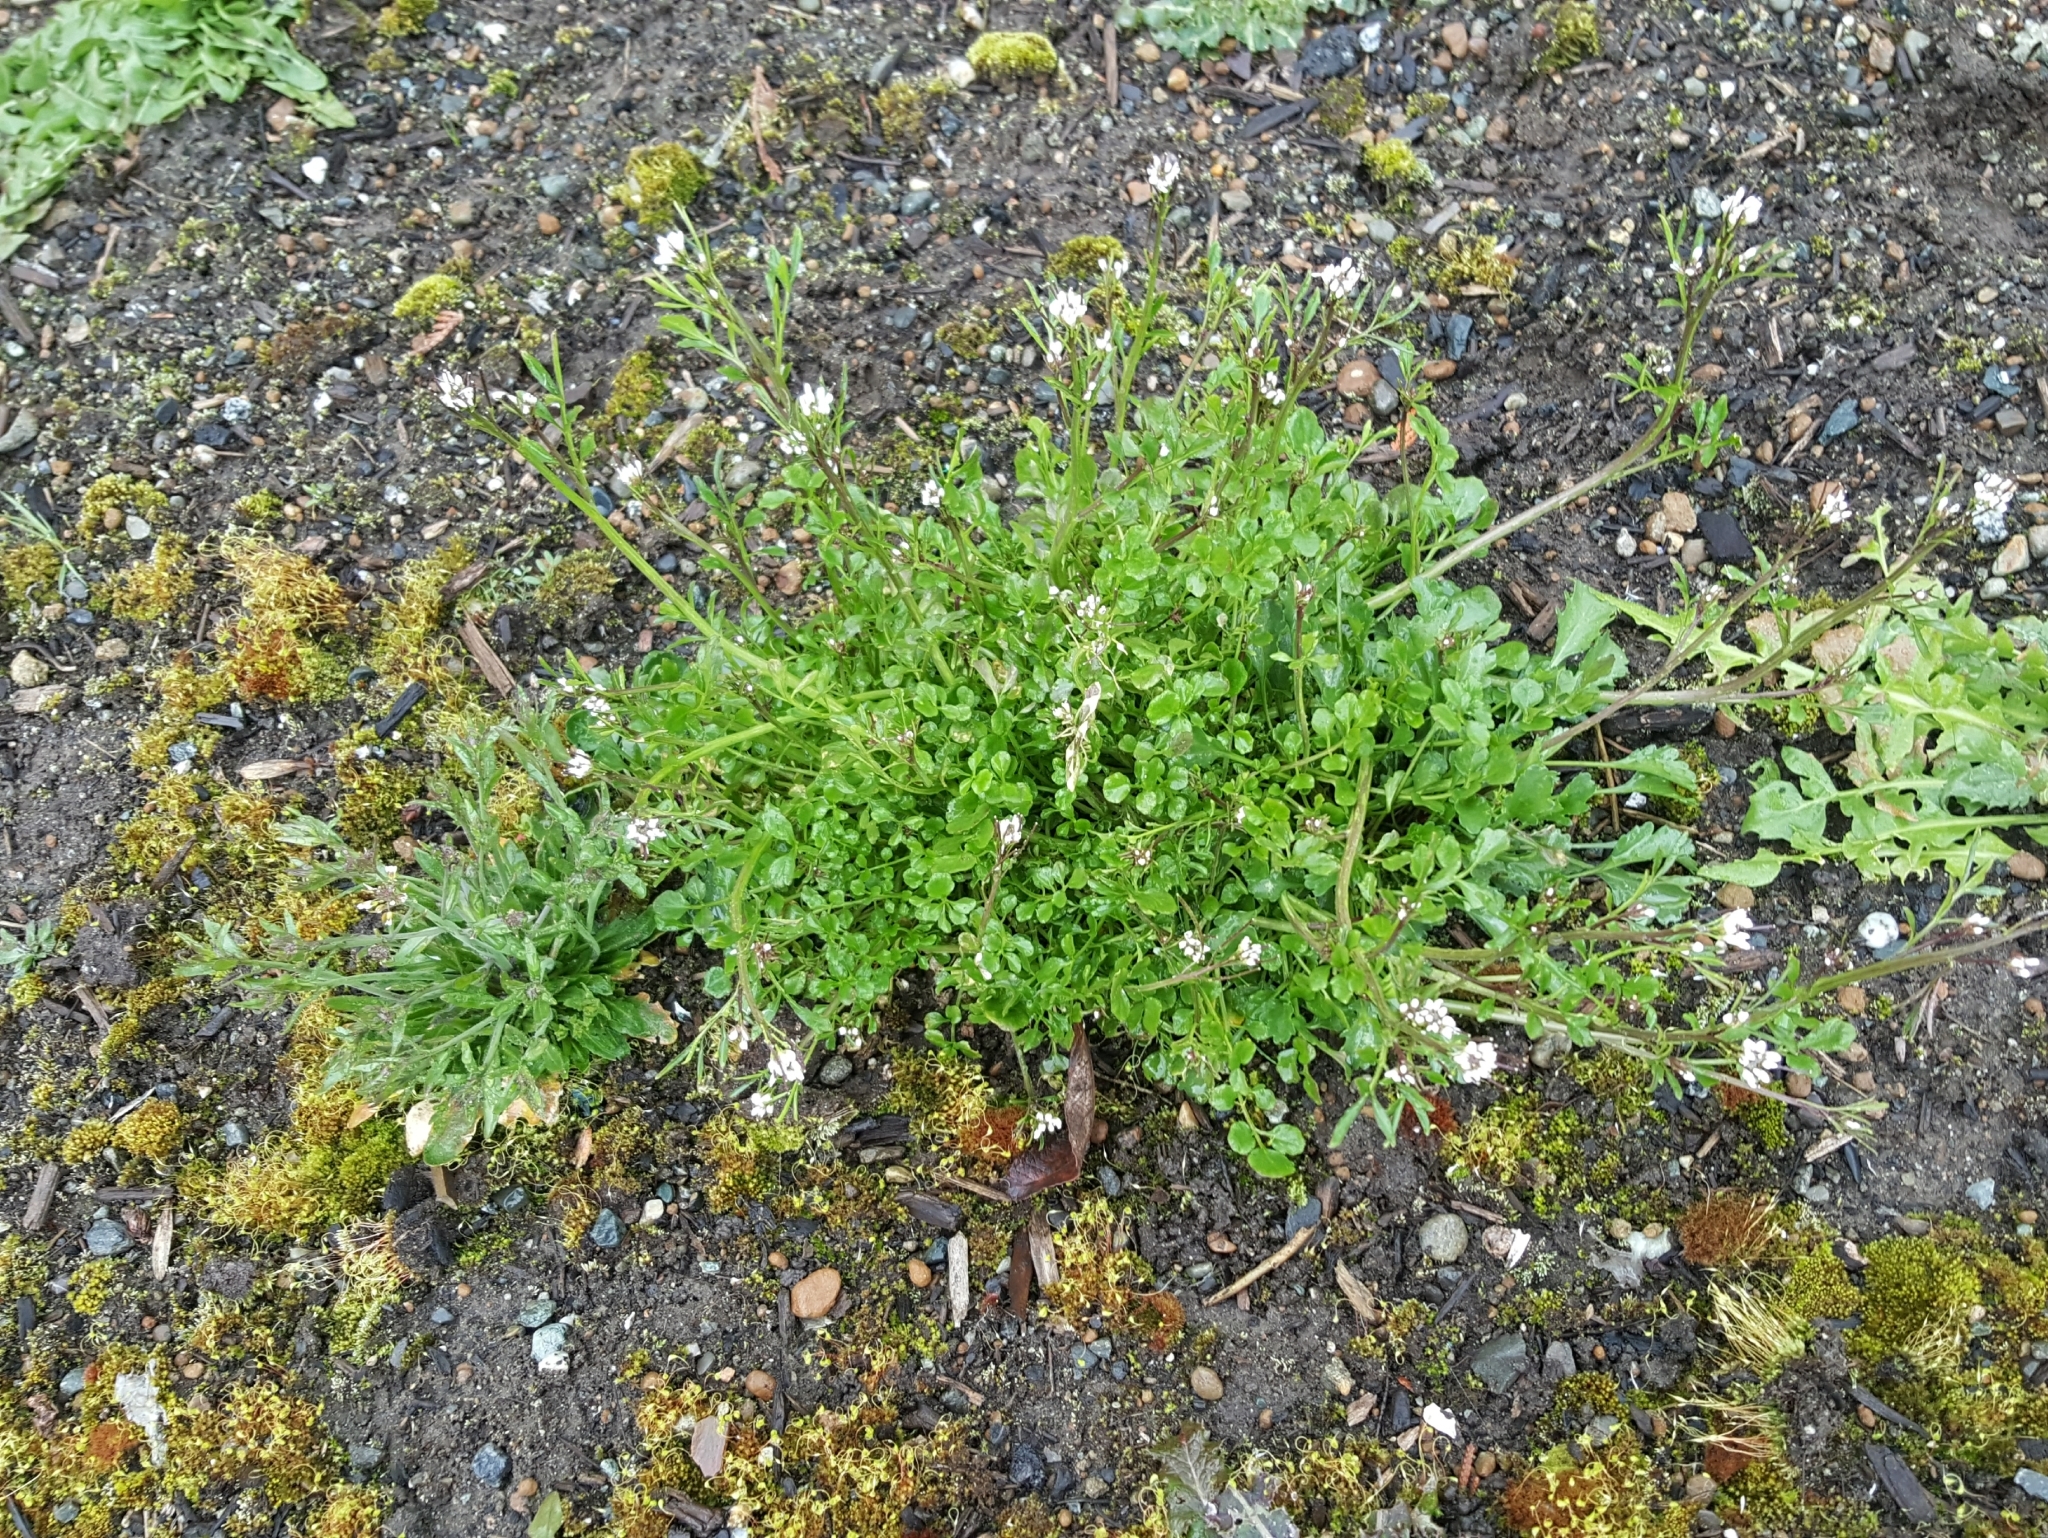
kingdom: Plantae
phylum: Tracheophyta
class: Magnoliopsida
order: Brassicales
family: Brassicaceae
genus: Cardamine
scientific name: Cardamine hirsuta
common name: Hairy bittercress
